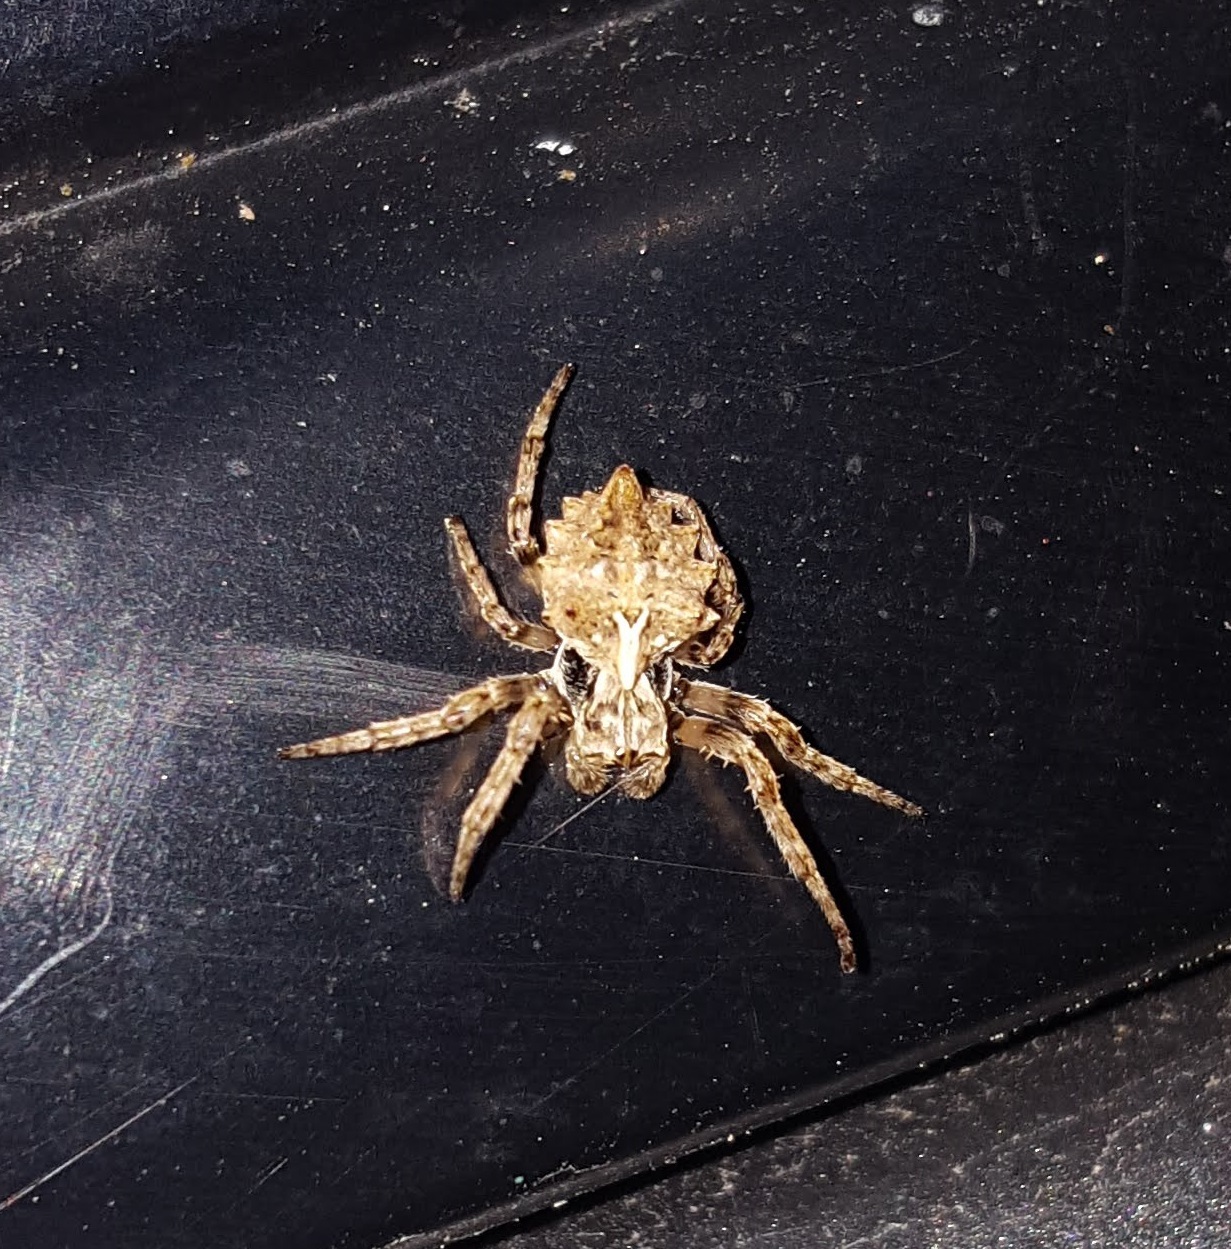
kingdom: Animalia
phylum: Arthropoda
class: Arachnida
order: Araneae
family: Araneidae
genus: Acanthepeira
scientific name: Acanthepeira stellata
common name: Starbellied orbweaver
